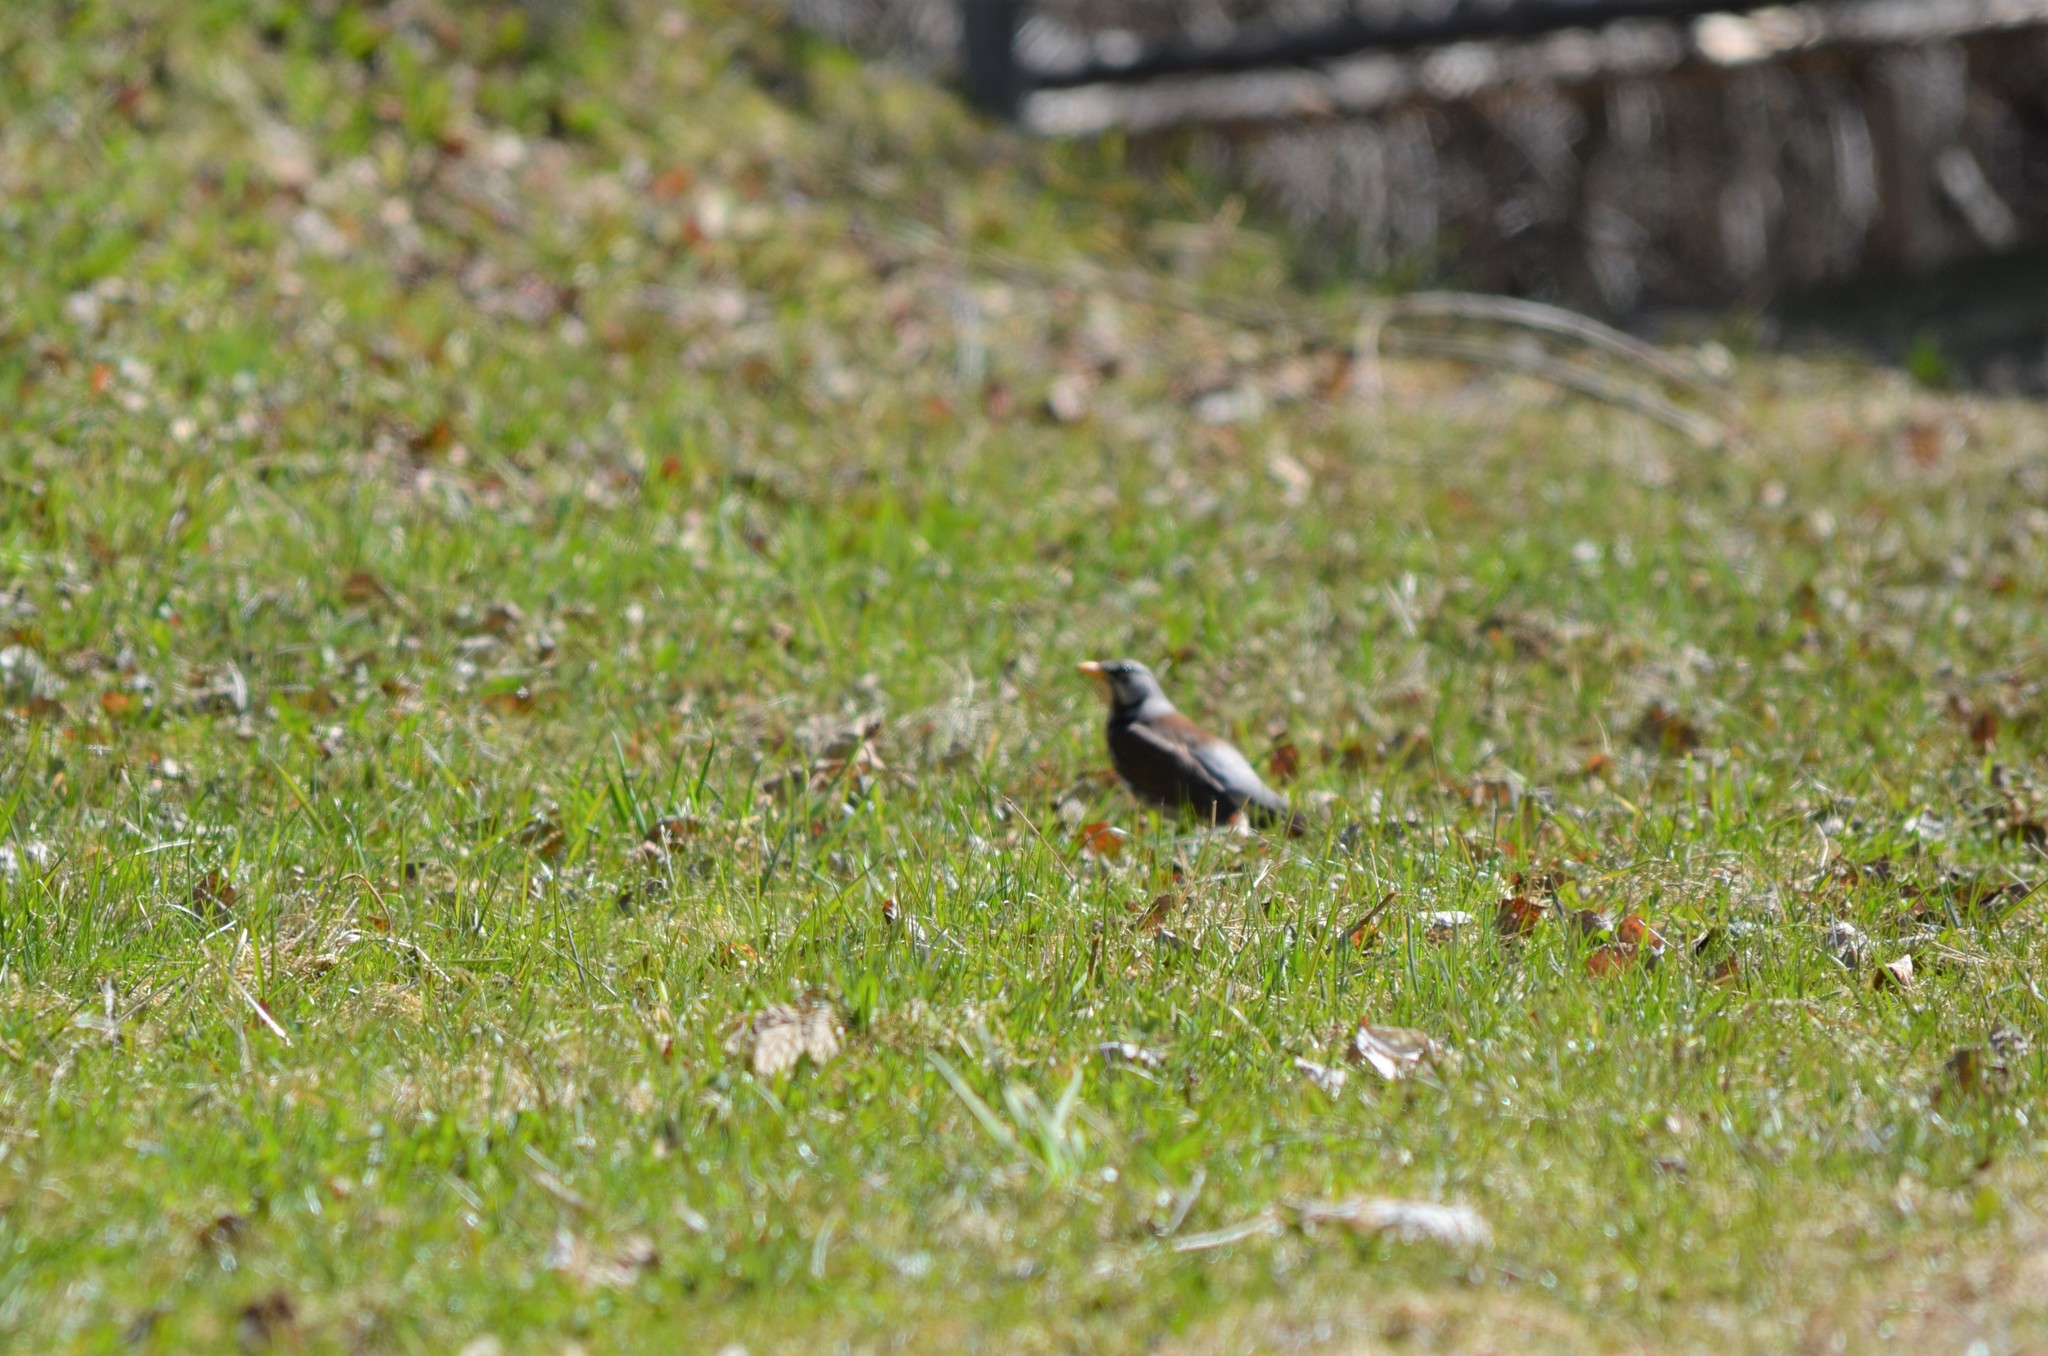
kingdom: Animalia
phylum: Chordata
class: Aves
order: Passeriformes
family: Turdidae
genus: Turdus
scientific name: Turdus pilaris
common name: Fieldfare
